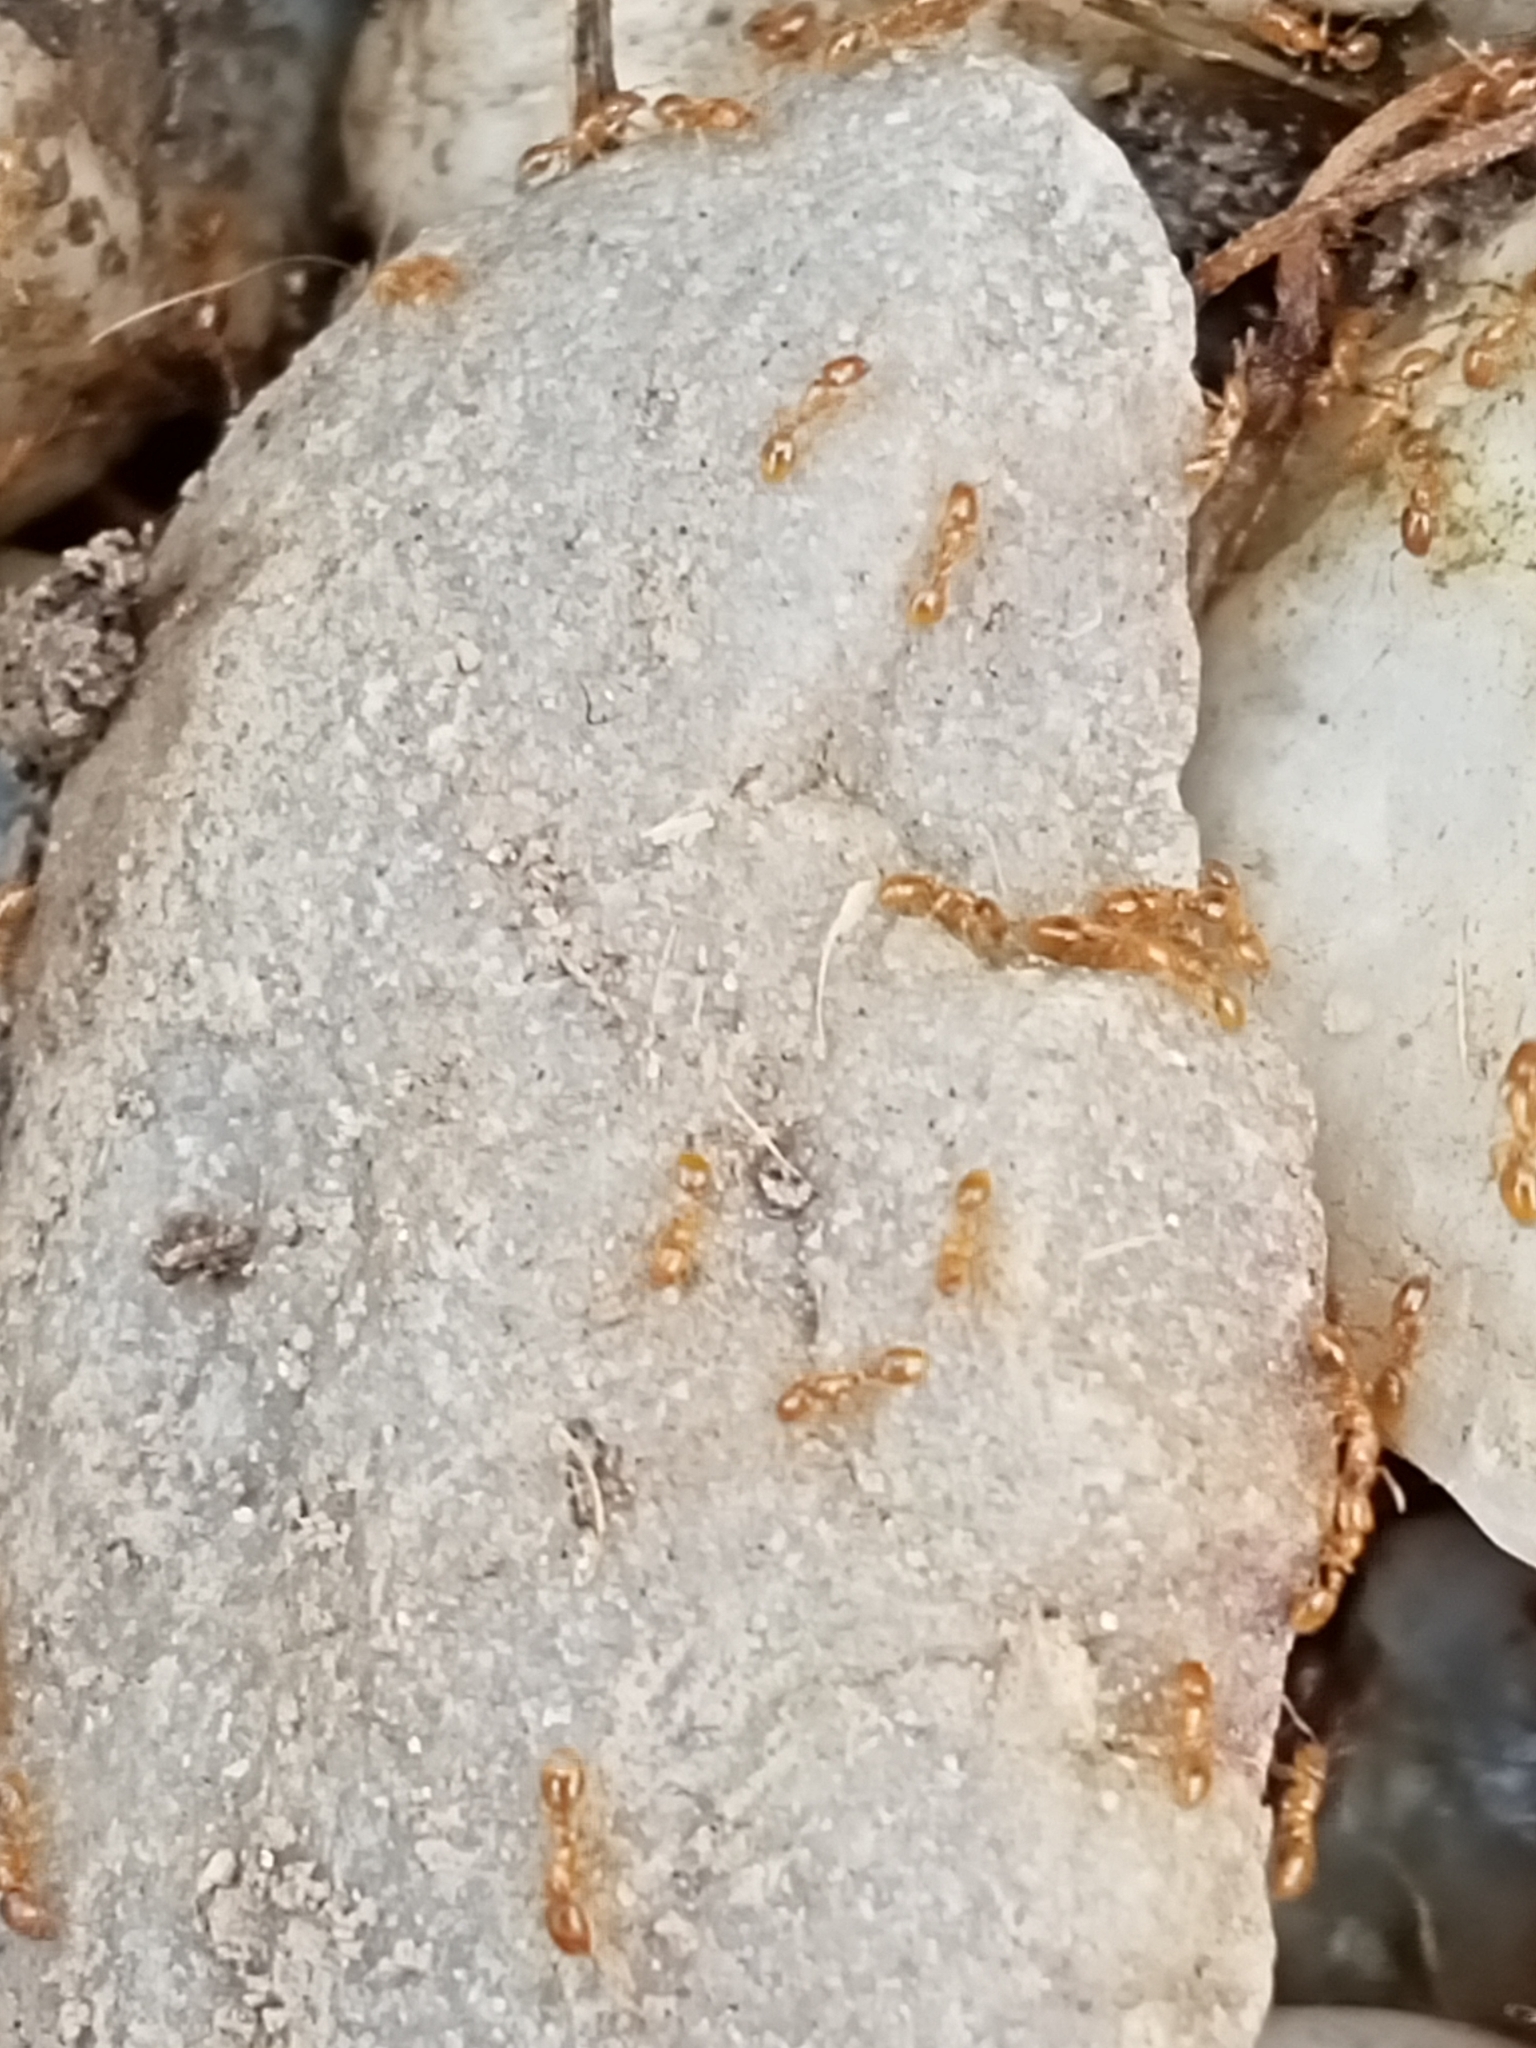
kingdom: Animalia
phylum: Arthropoda
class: Insecta
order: Hymenoptera
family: Formicidae
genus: Solenopsis
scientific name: Solenopsis fugax
